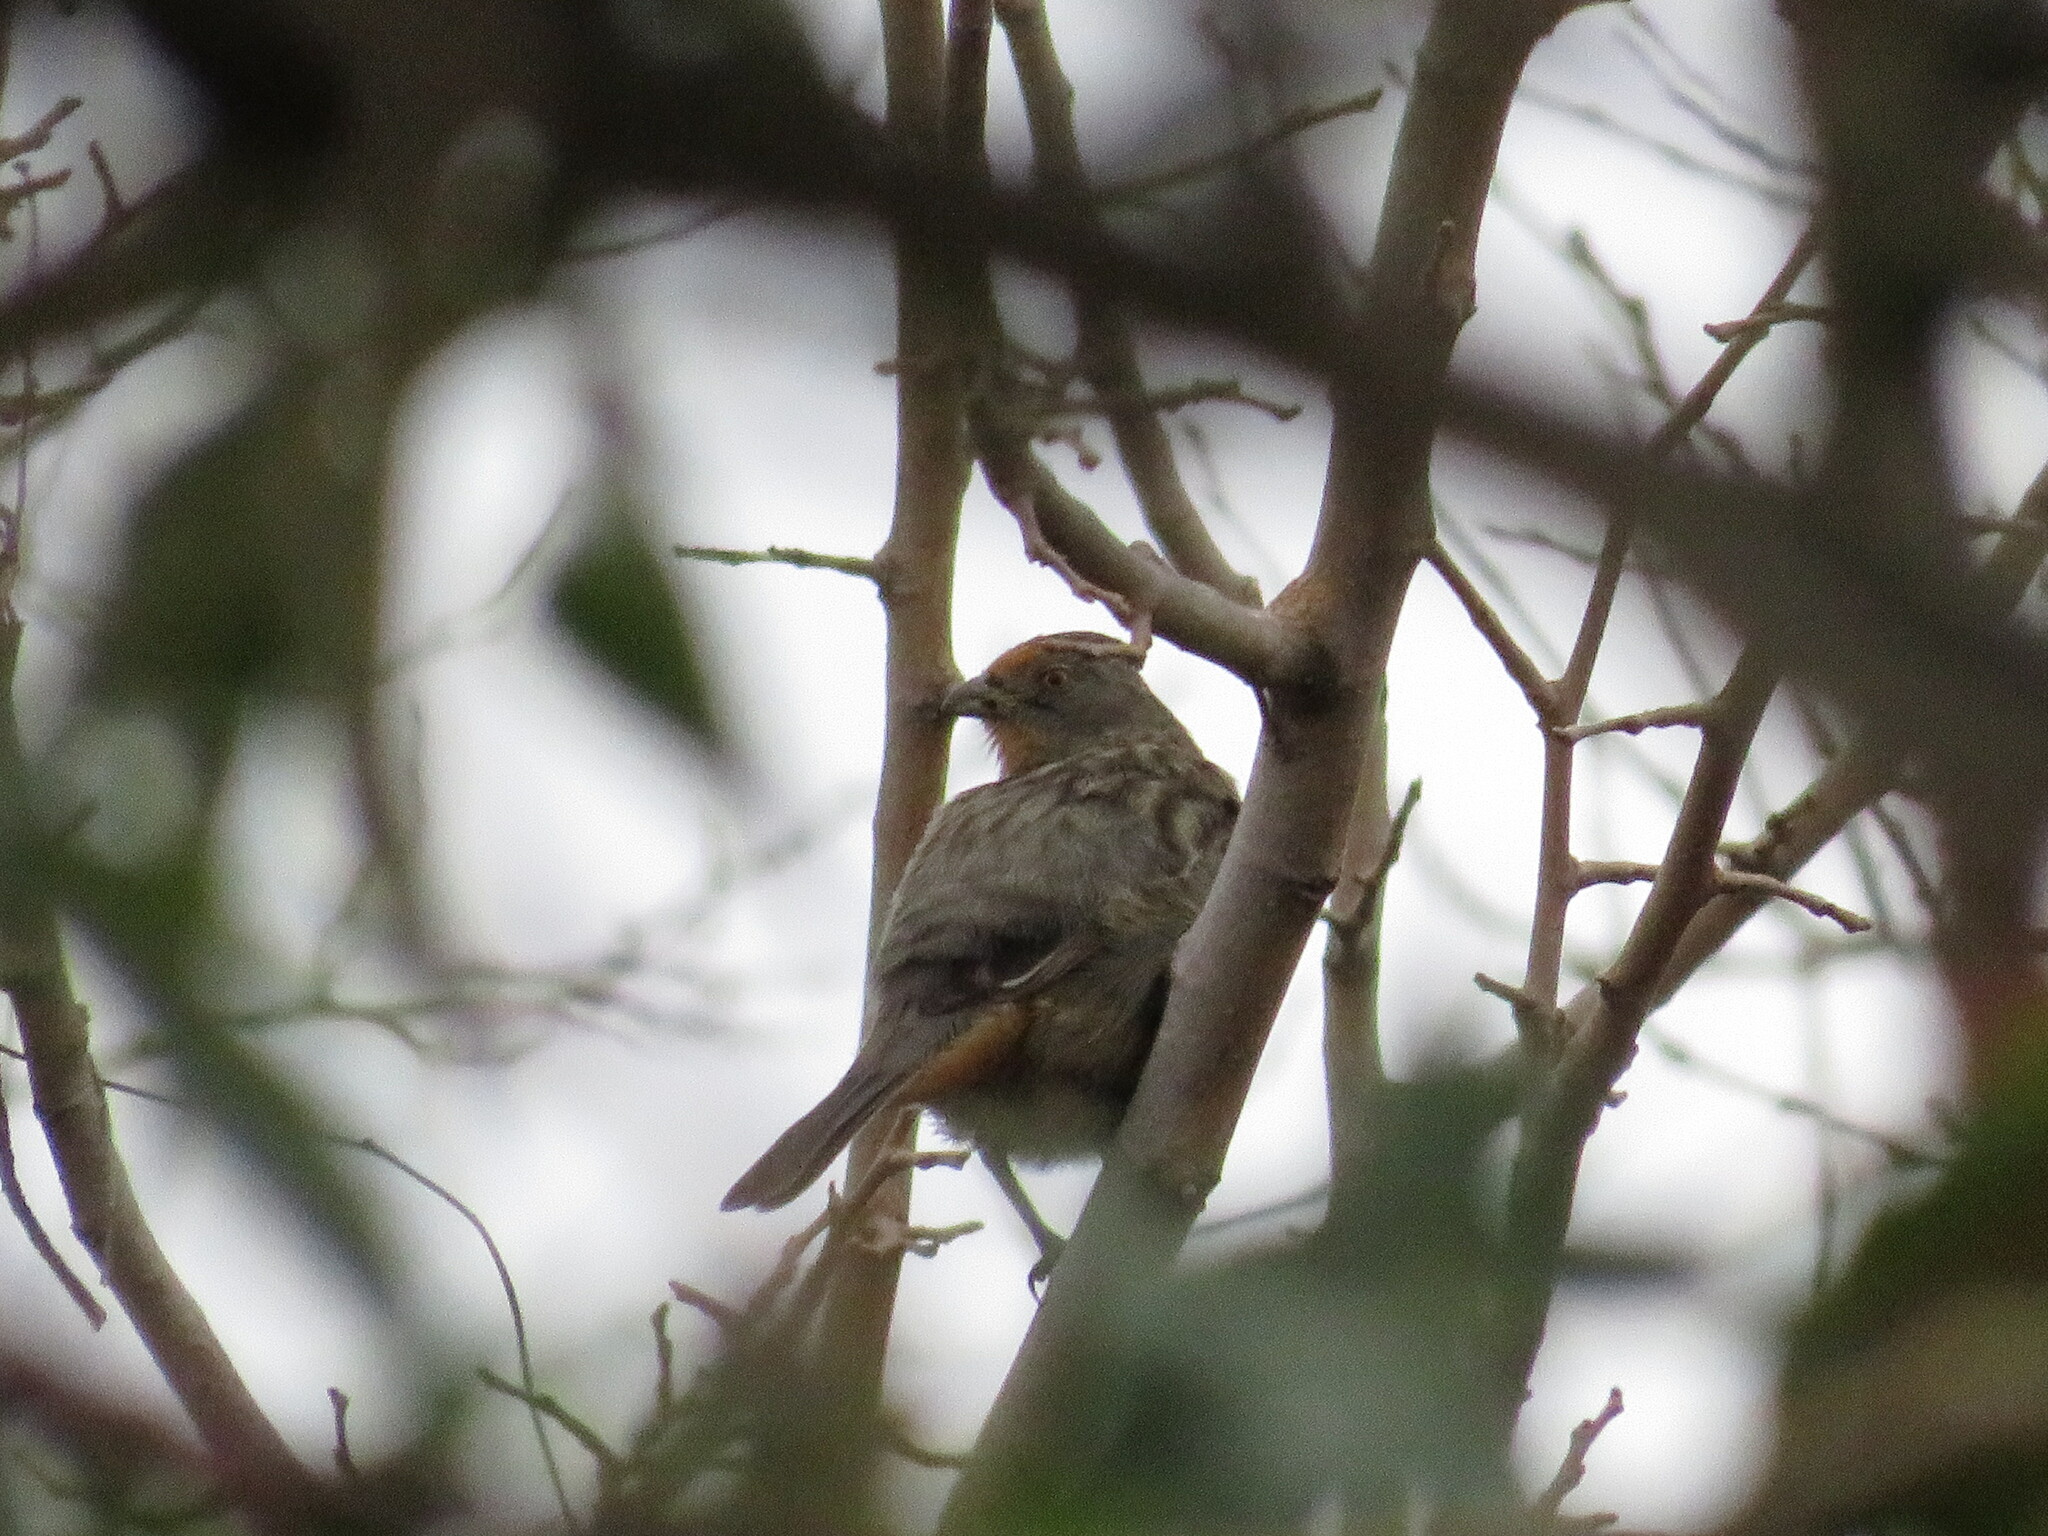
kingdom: Animalia
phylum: Chordata
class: Aves
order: Passeriformes
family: Cotingidae
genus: Phytotoma
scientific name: Phytotoma rutila
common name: White-tipped plantcutter
